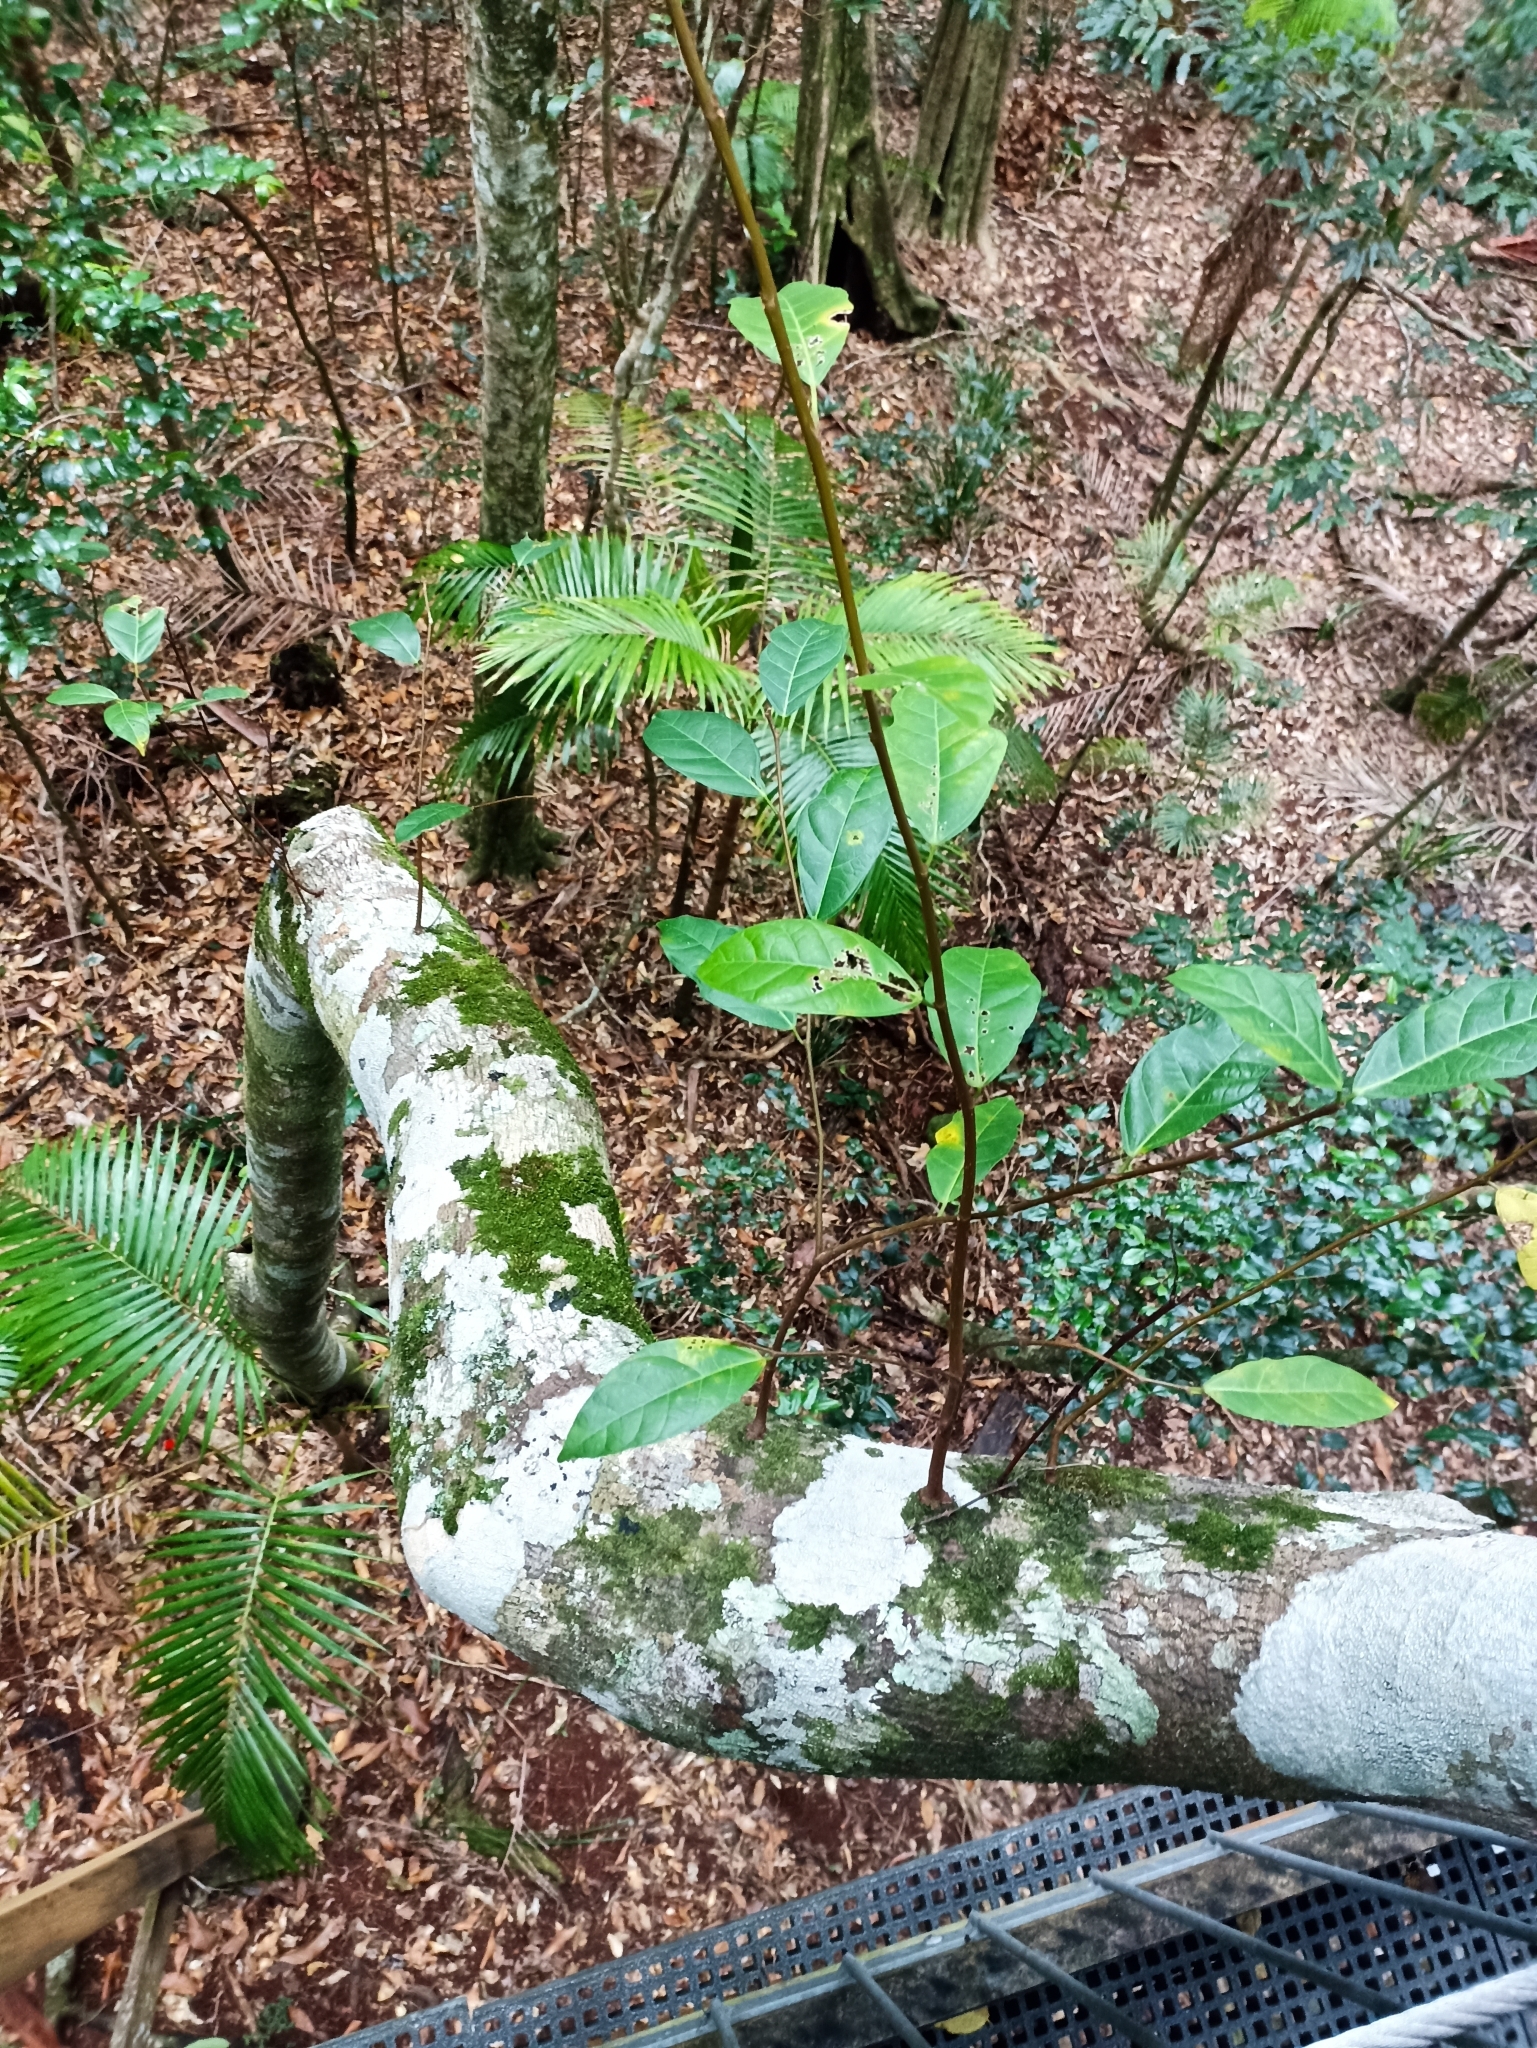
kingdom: Plantae
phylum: Tracheophyta
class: Magnoliopsida
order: Rosales
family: Moraceae
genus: Ficus
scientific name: Ficus fraseri
